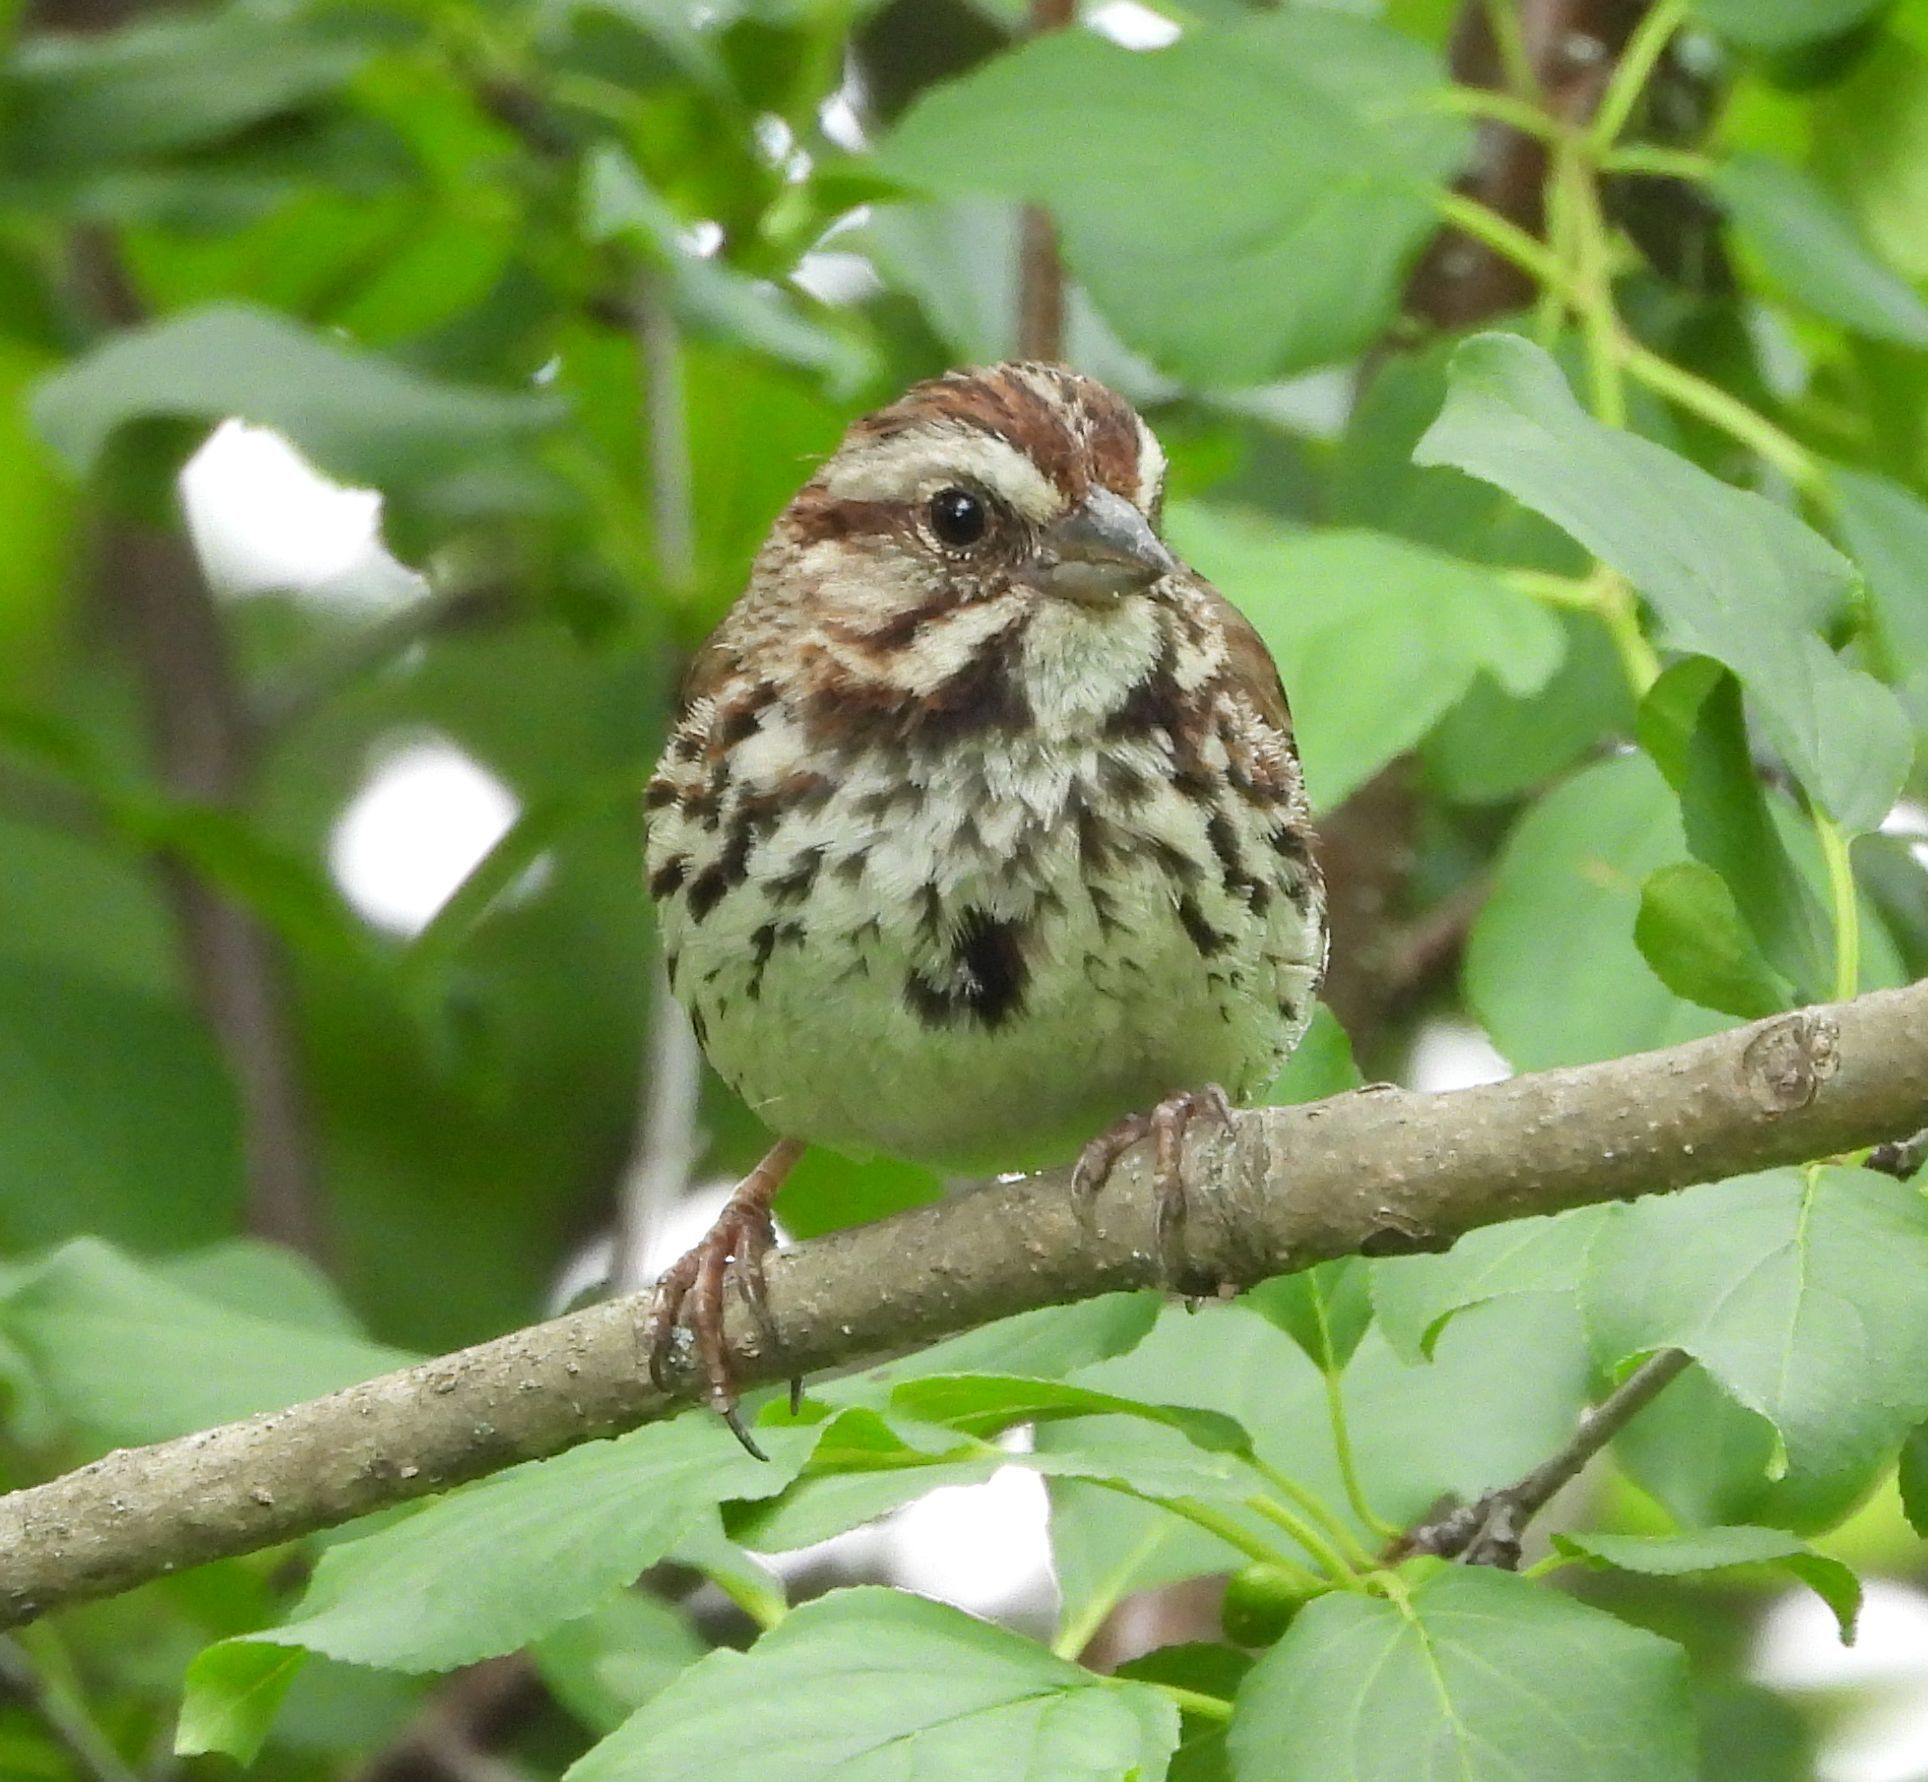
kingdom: Animalia
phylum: Chordata
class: Aves
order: Passeriformes
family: Passerellidae
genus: Melospiza
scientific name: Melospiza melodia
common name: Song sparrow
